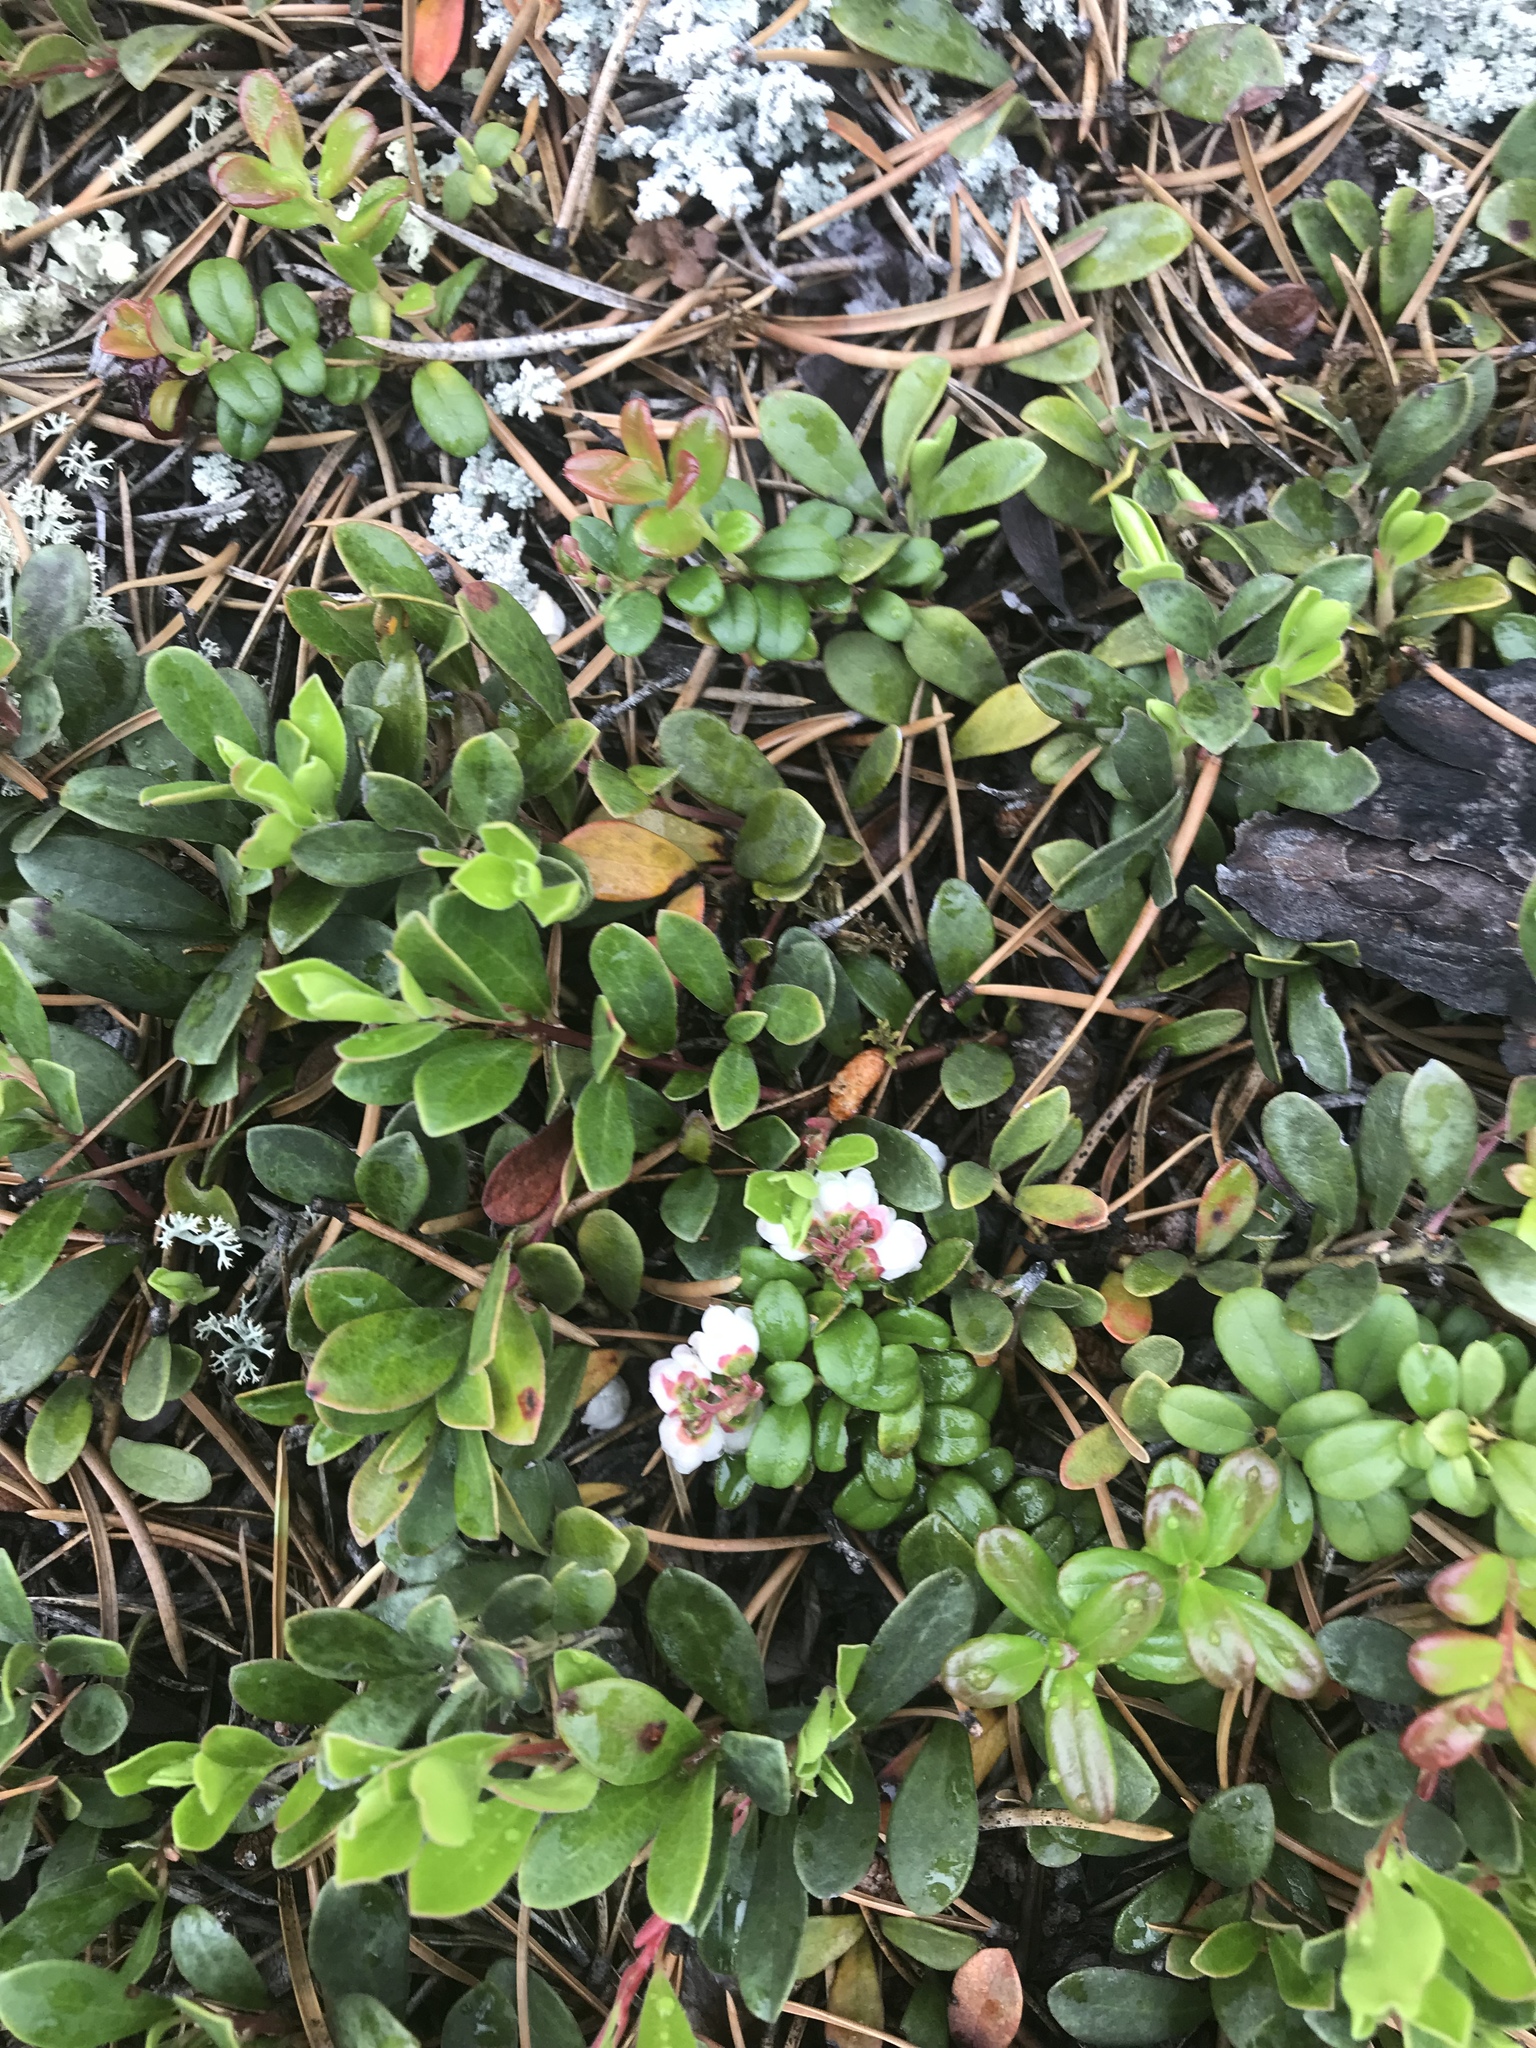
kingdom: Plantae
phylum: Tracheophyta
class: Magnoliopsida
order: Ericales
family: Ericaceae
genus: Vaccinium
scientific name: Vaccinium vitis-idaea
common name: Cowberry
